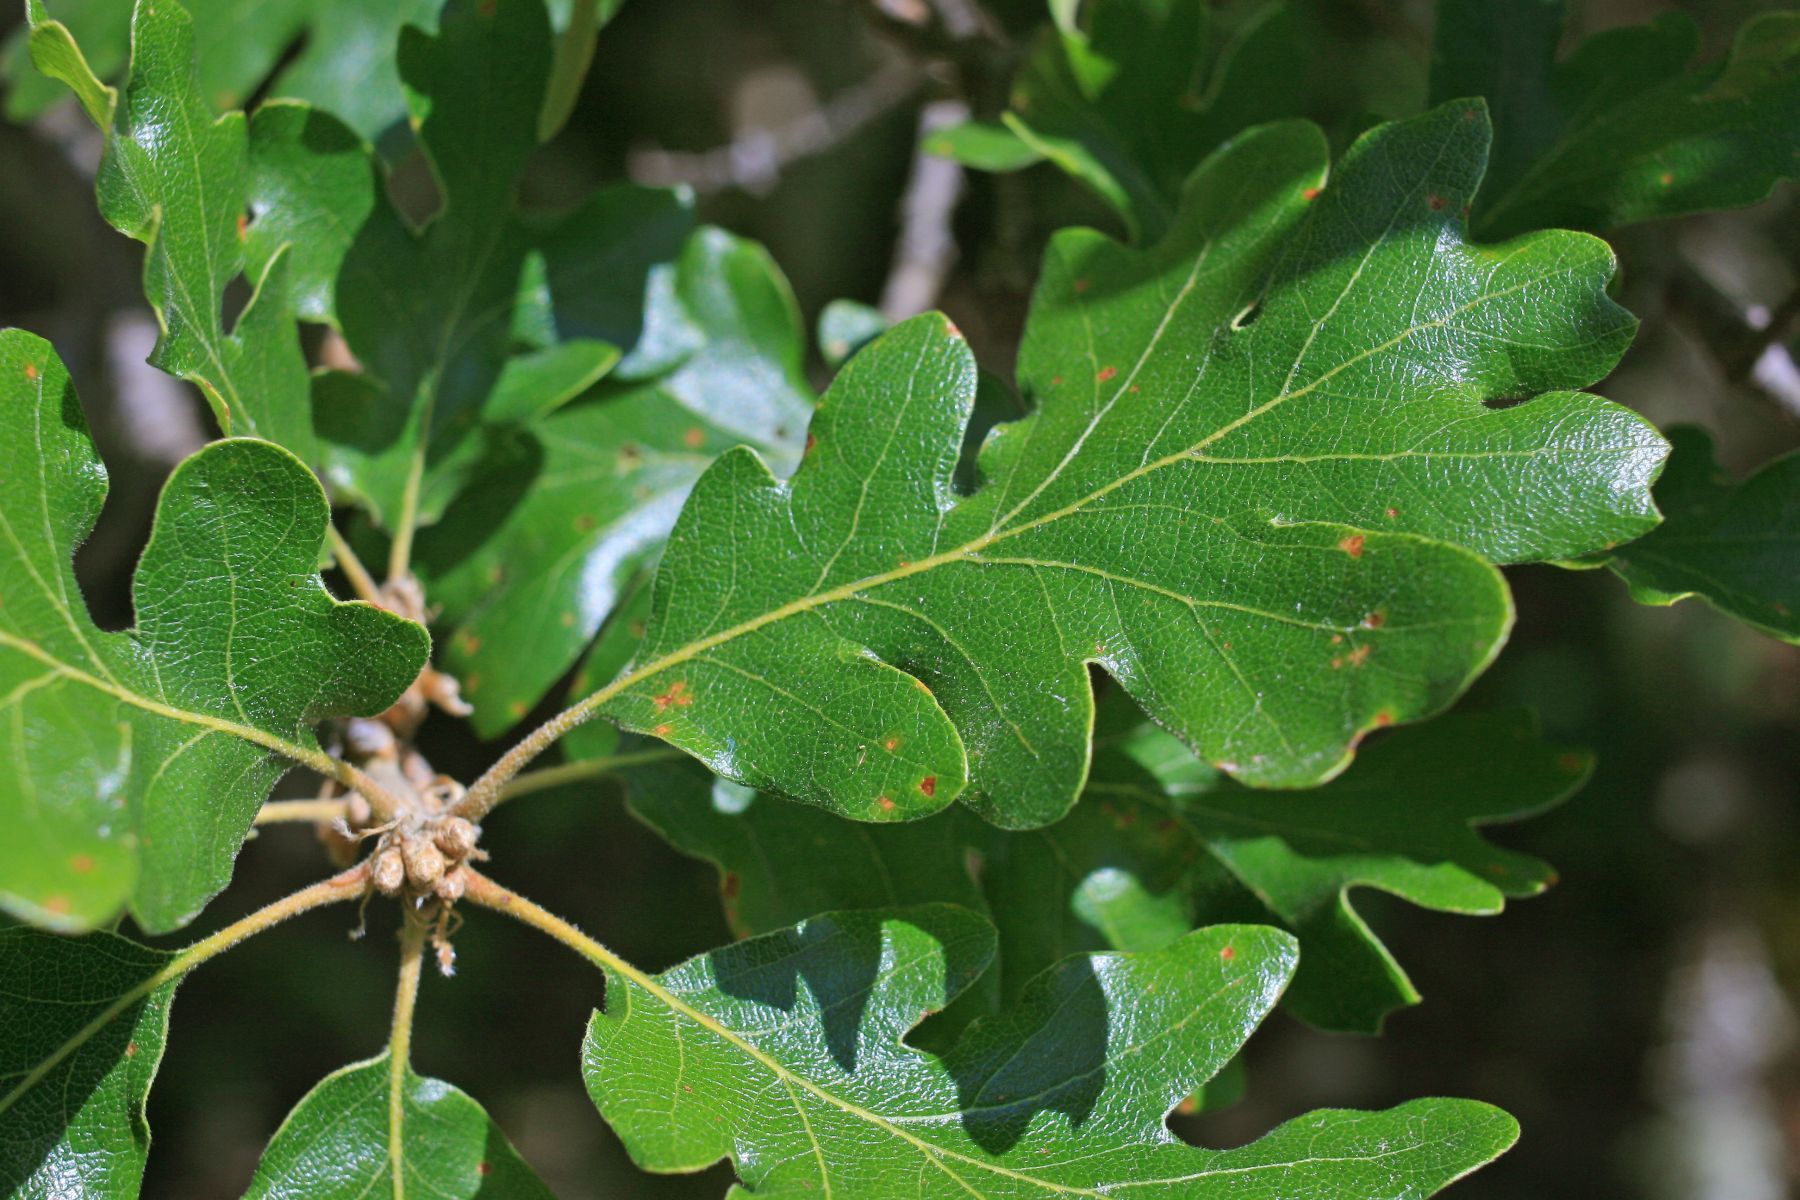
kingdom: Plantae
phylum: Tracheophyta
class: Magnoliopsida
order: Fagales
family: Fagaceae
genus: Quercus
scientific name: Quercus garryana
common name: Garry oak
